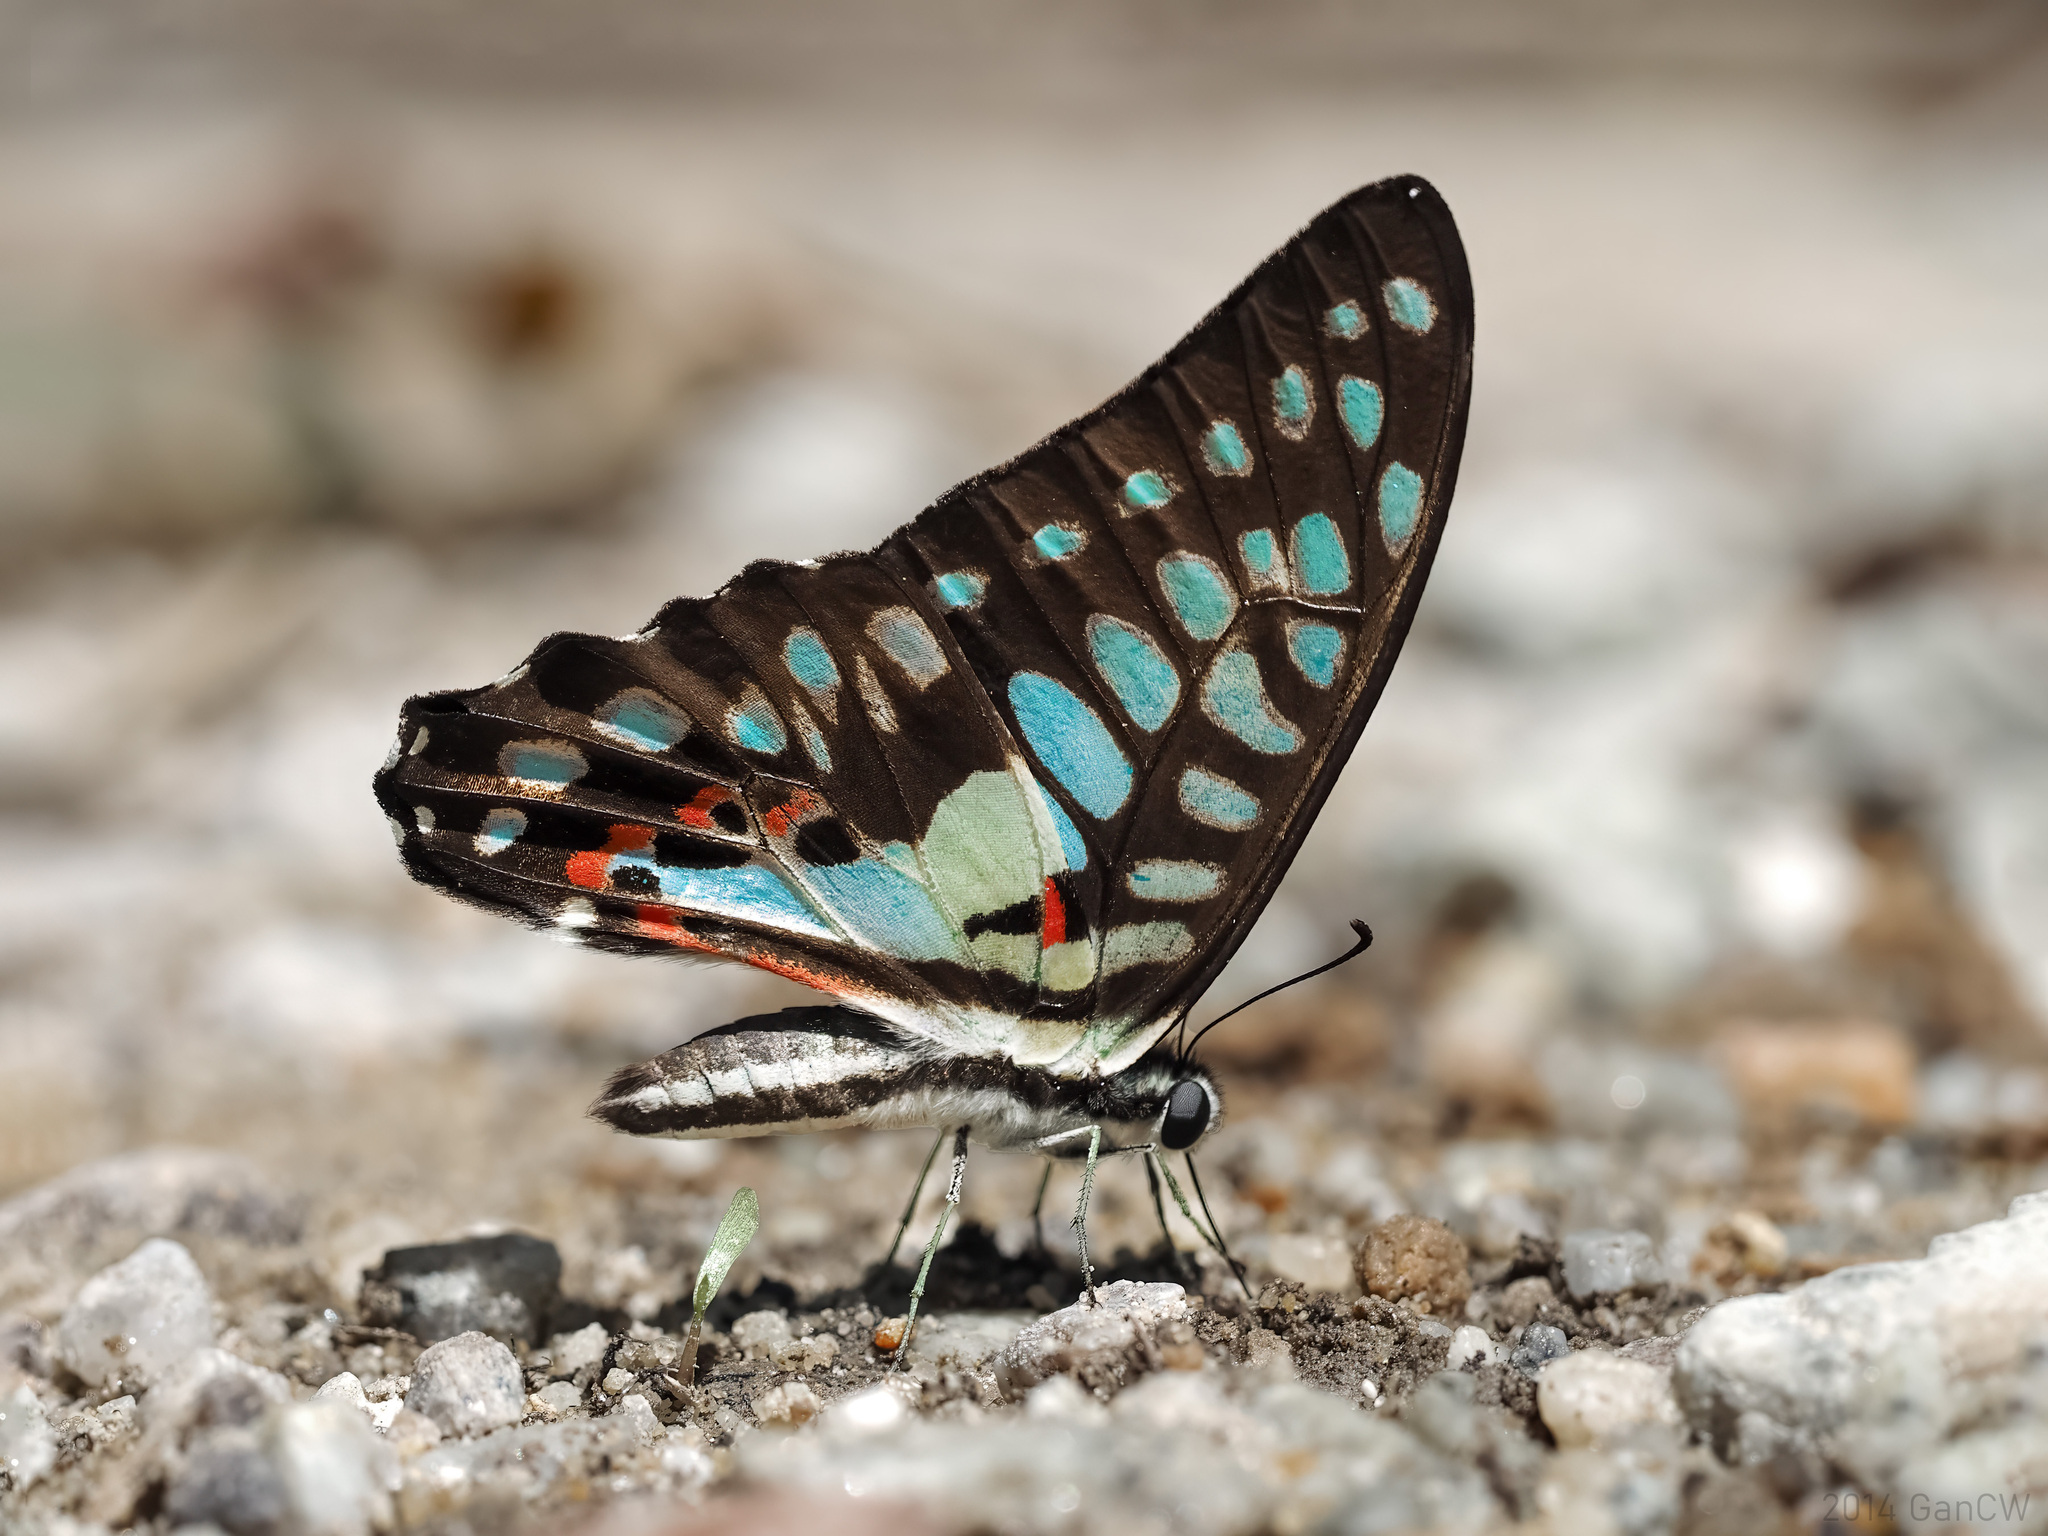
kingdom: Animalia
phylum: Arthropoda
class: Insecta
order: Lepidoptera
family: Papilionidae
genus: Graphium
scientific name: Graphium doson
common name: Common jay
